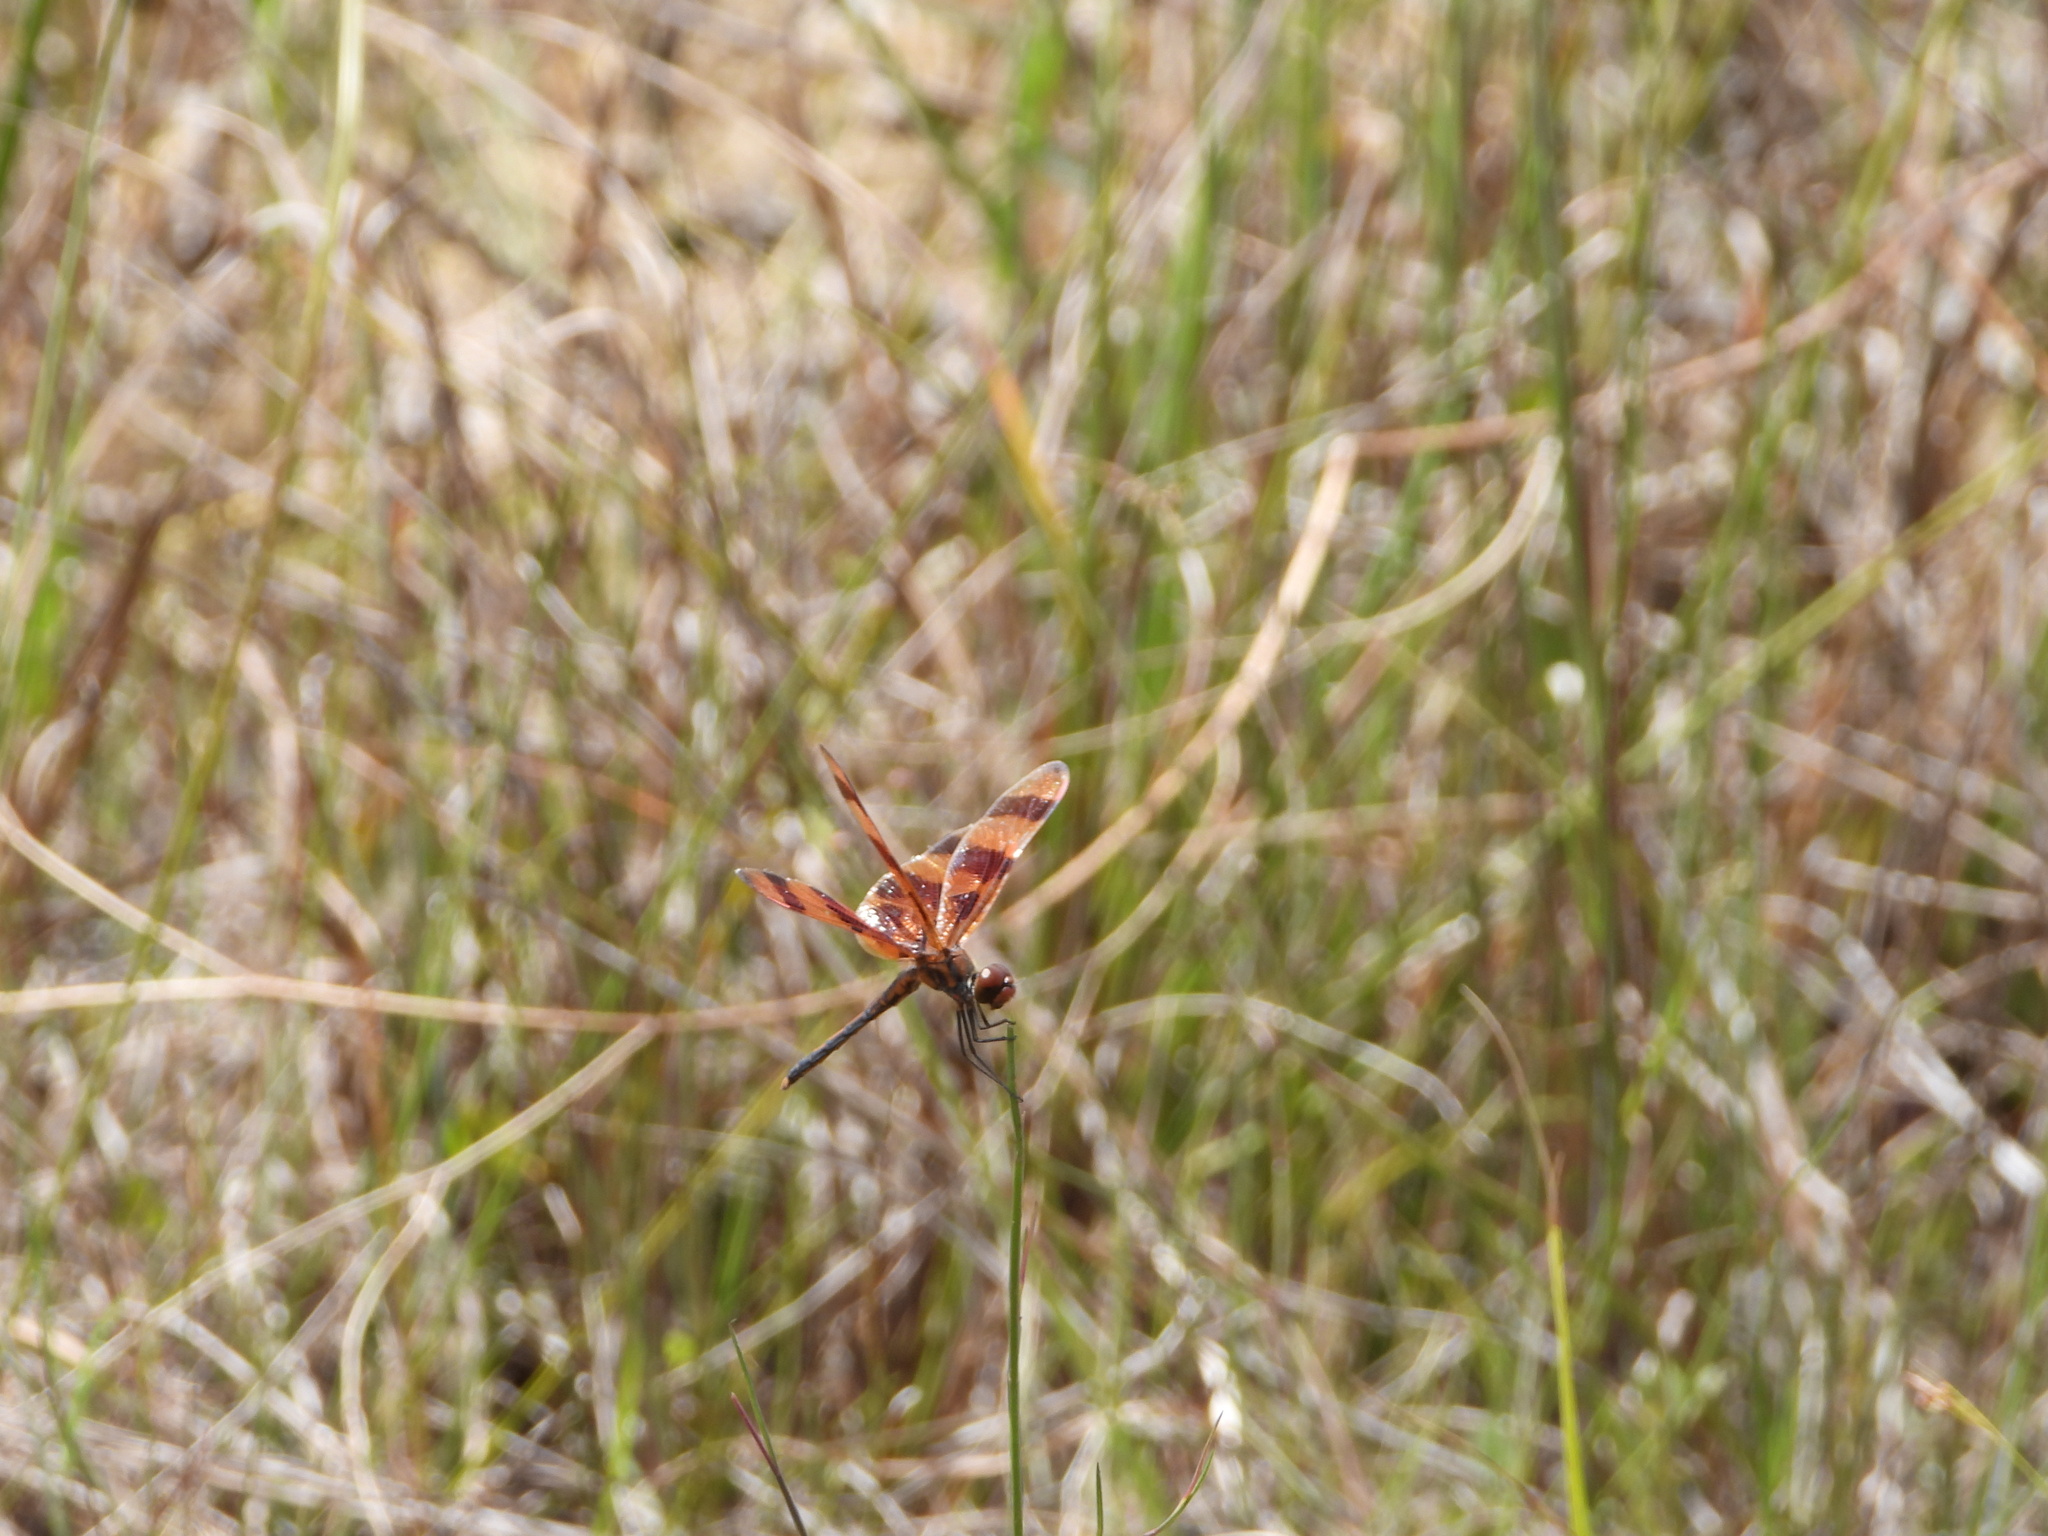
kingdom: Animalia
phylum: Arthropoda
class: Insecta
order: Odonata
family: Libellulidae
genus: Celithemis
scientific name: Celithemis eponina
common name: Halloween pennant
